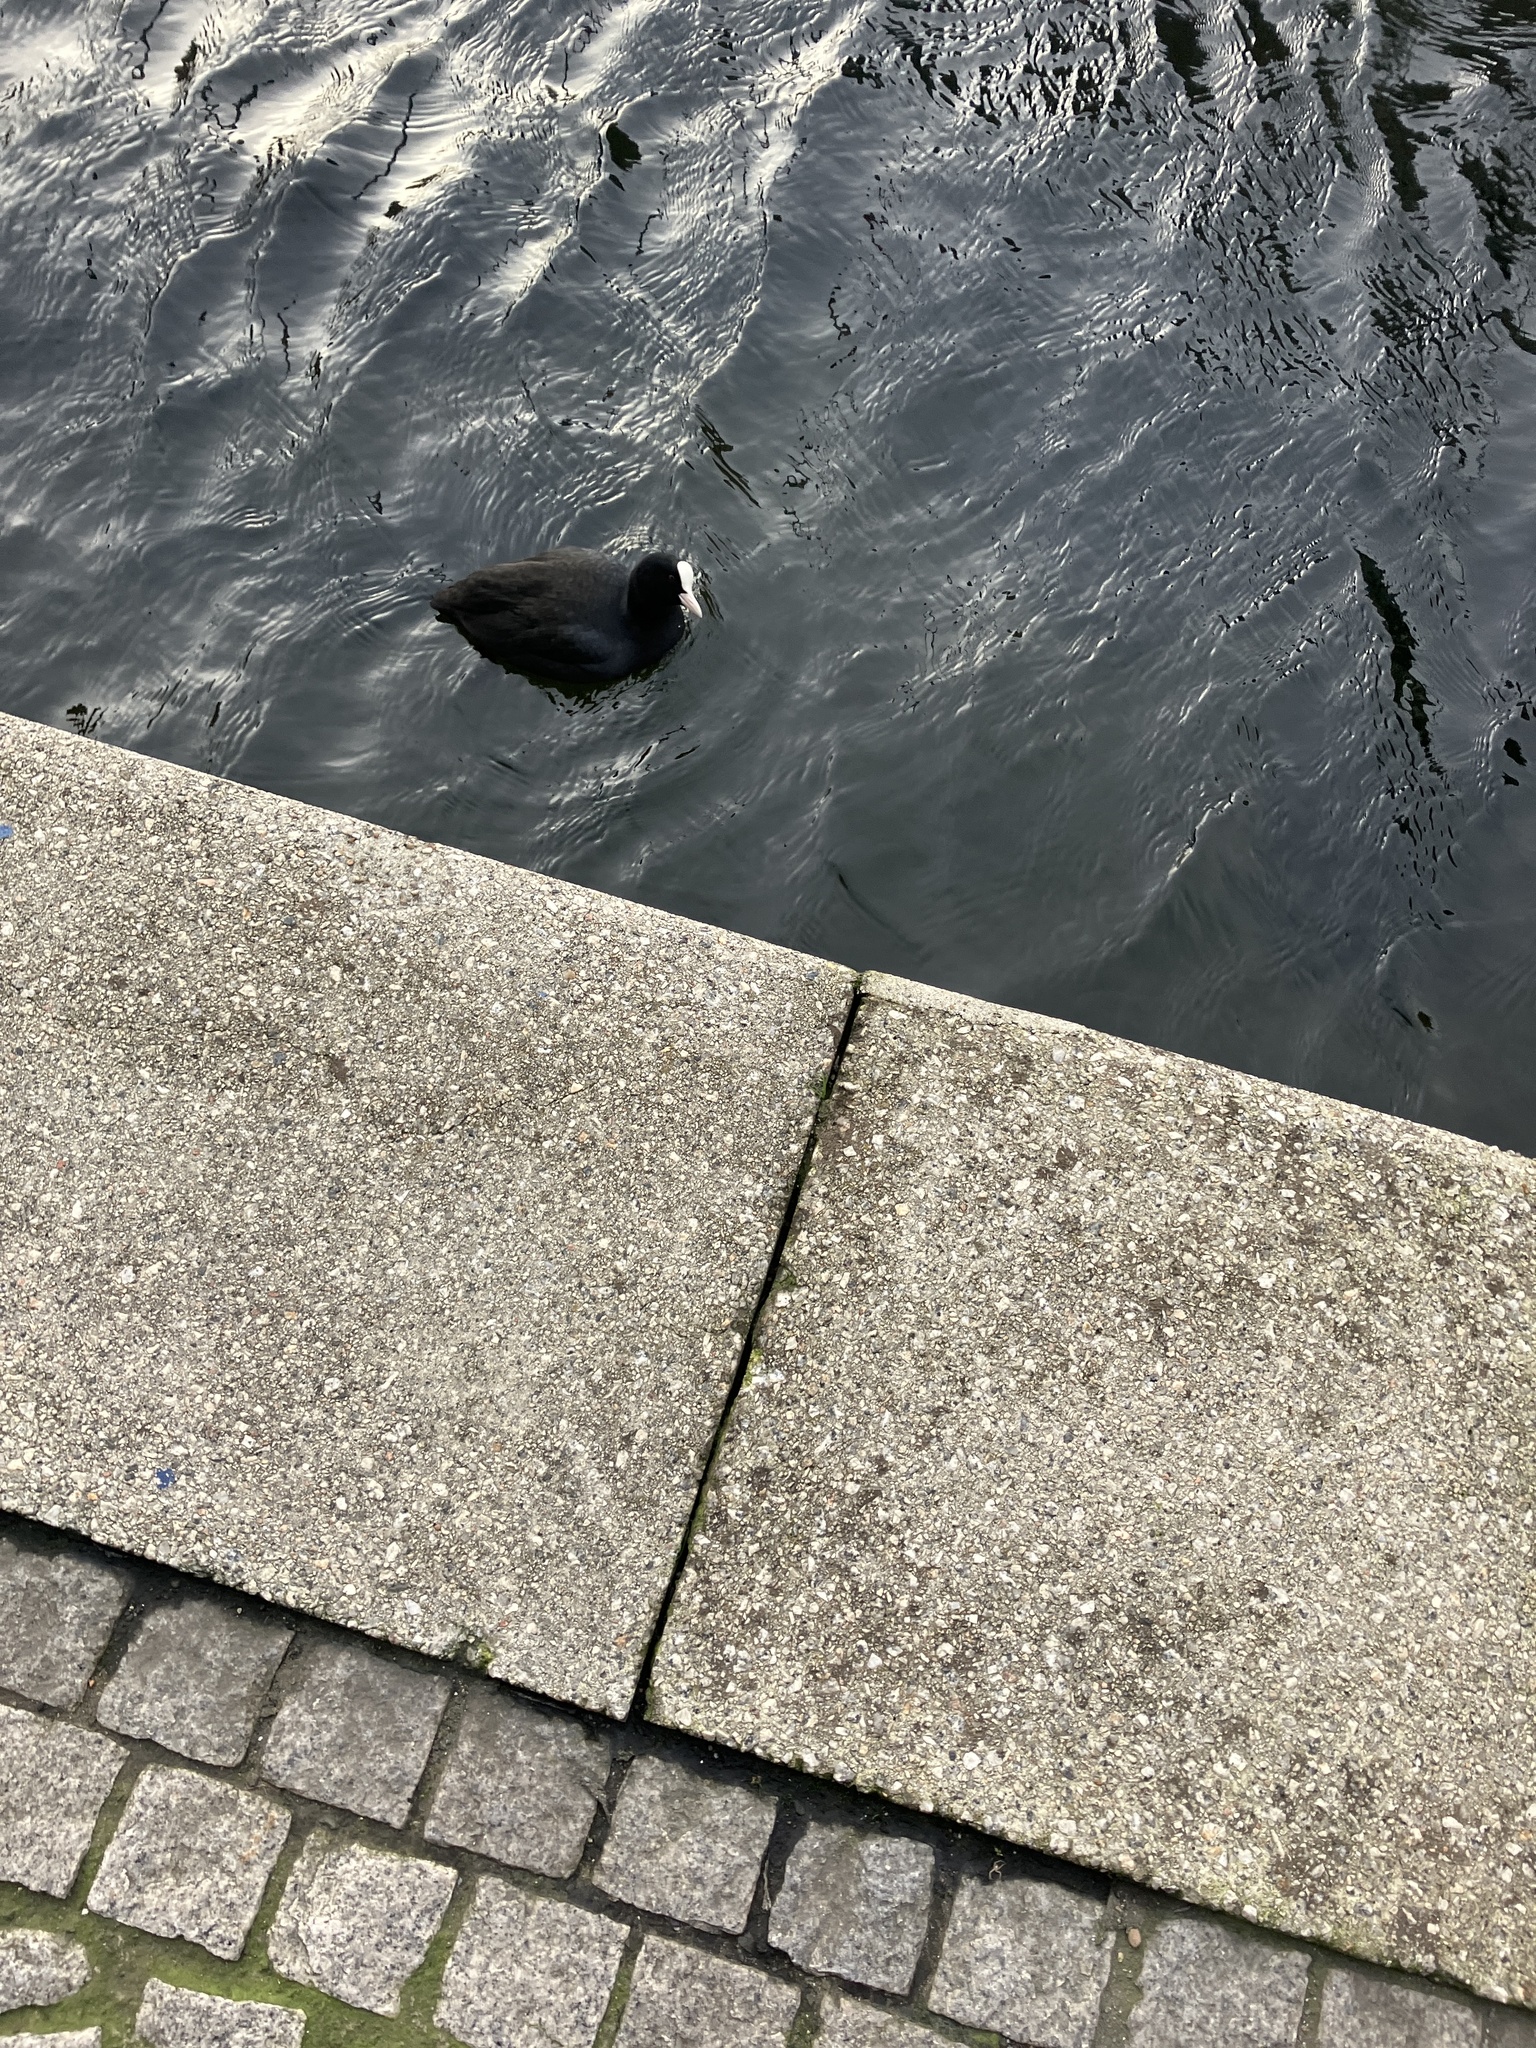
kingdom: Animalia
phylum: Chordata
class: Aves
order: Gruiformes
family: Rallidae
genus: Fulica
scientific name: Fulica atra
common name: Eurasian coot
